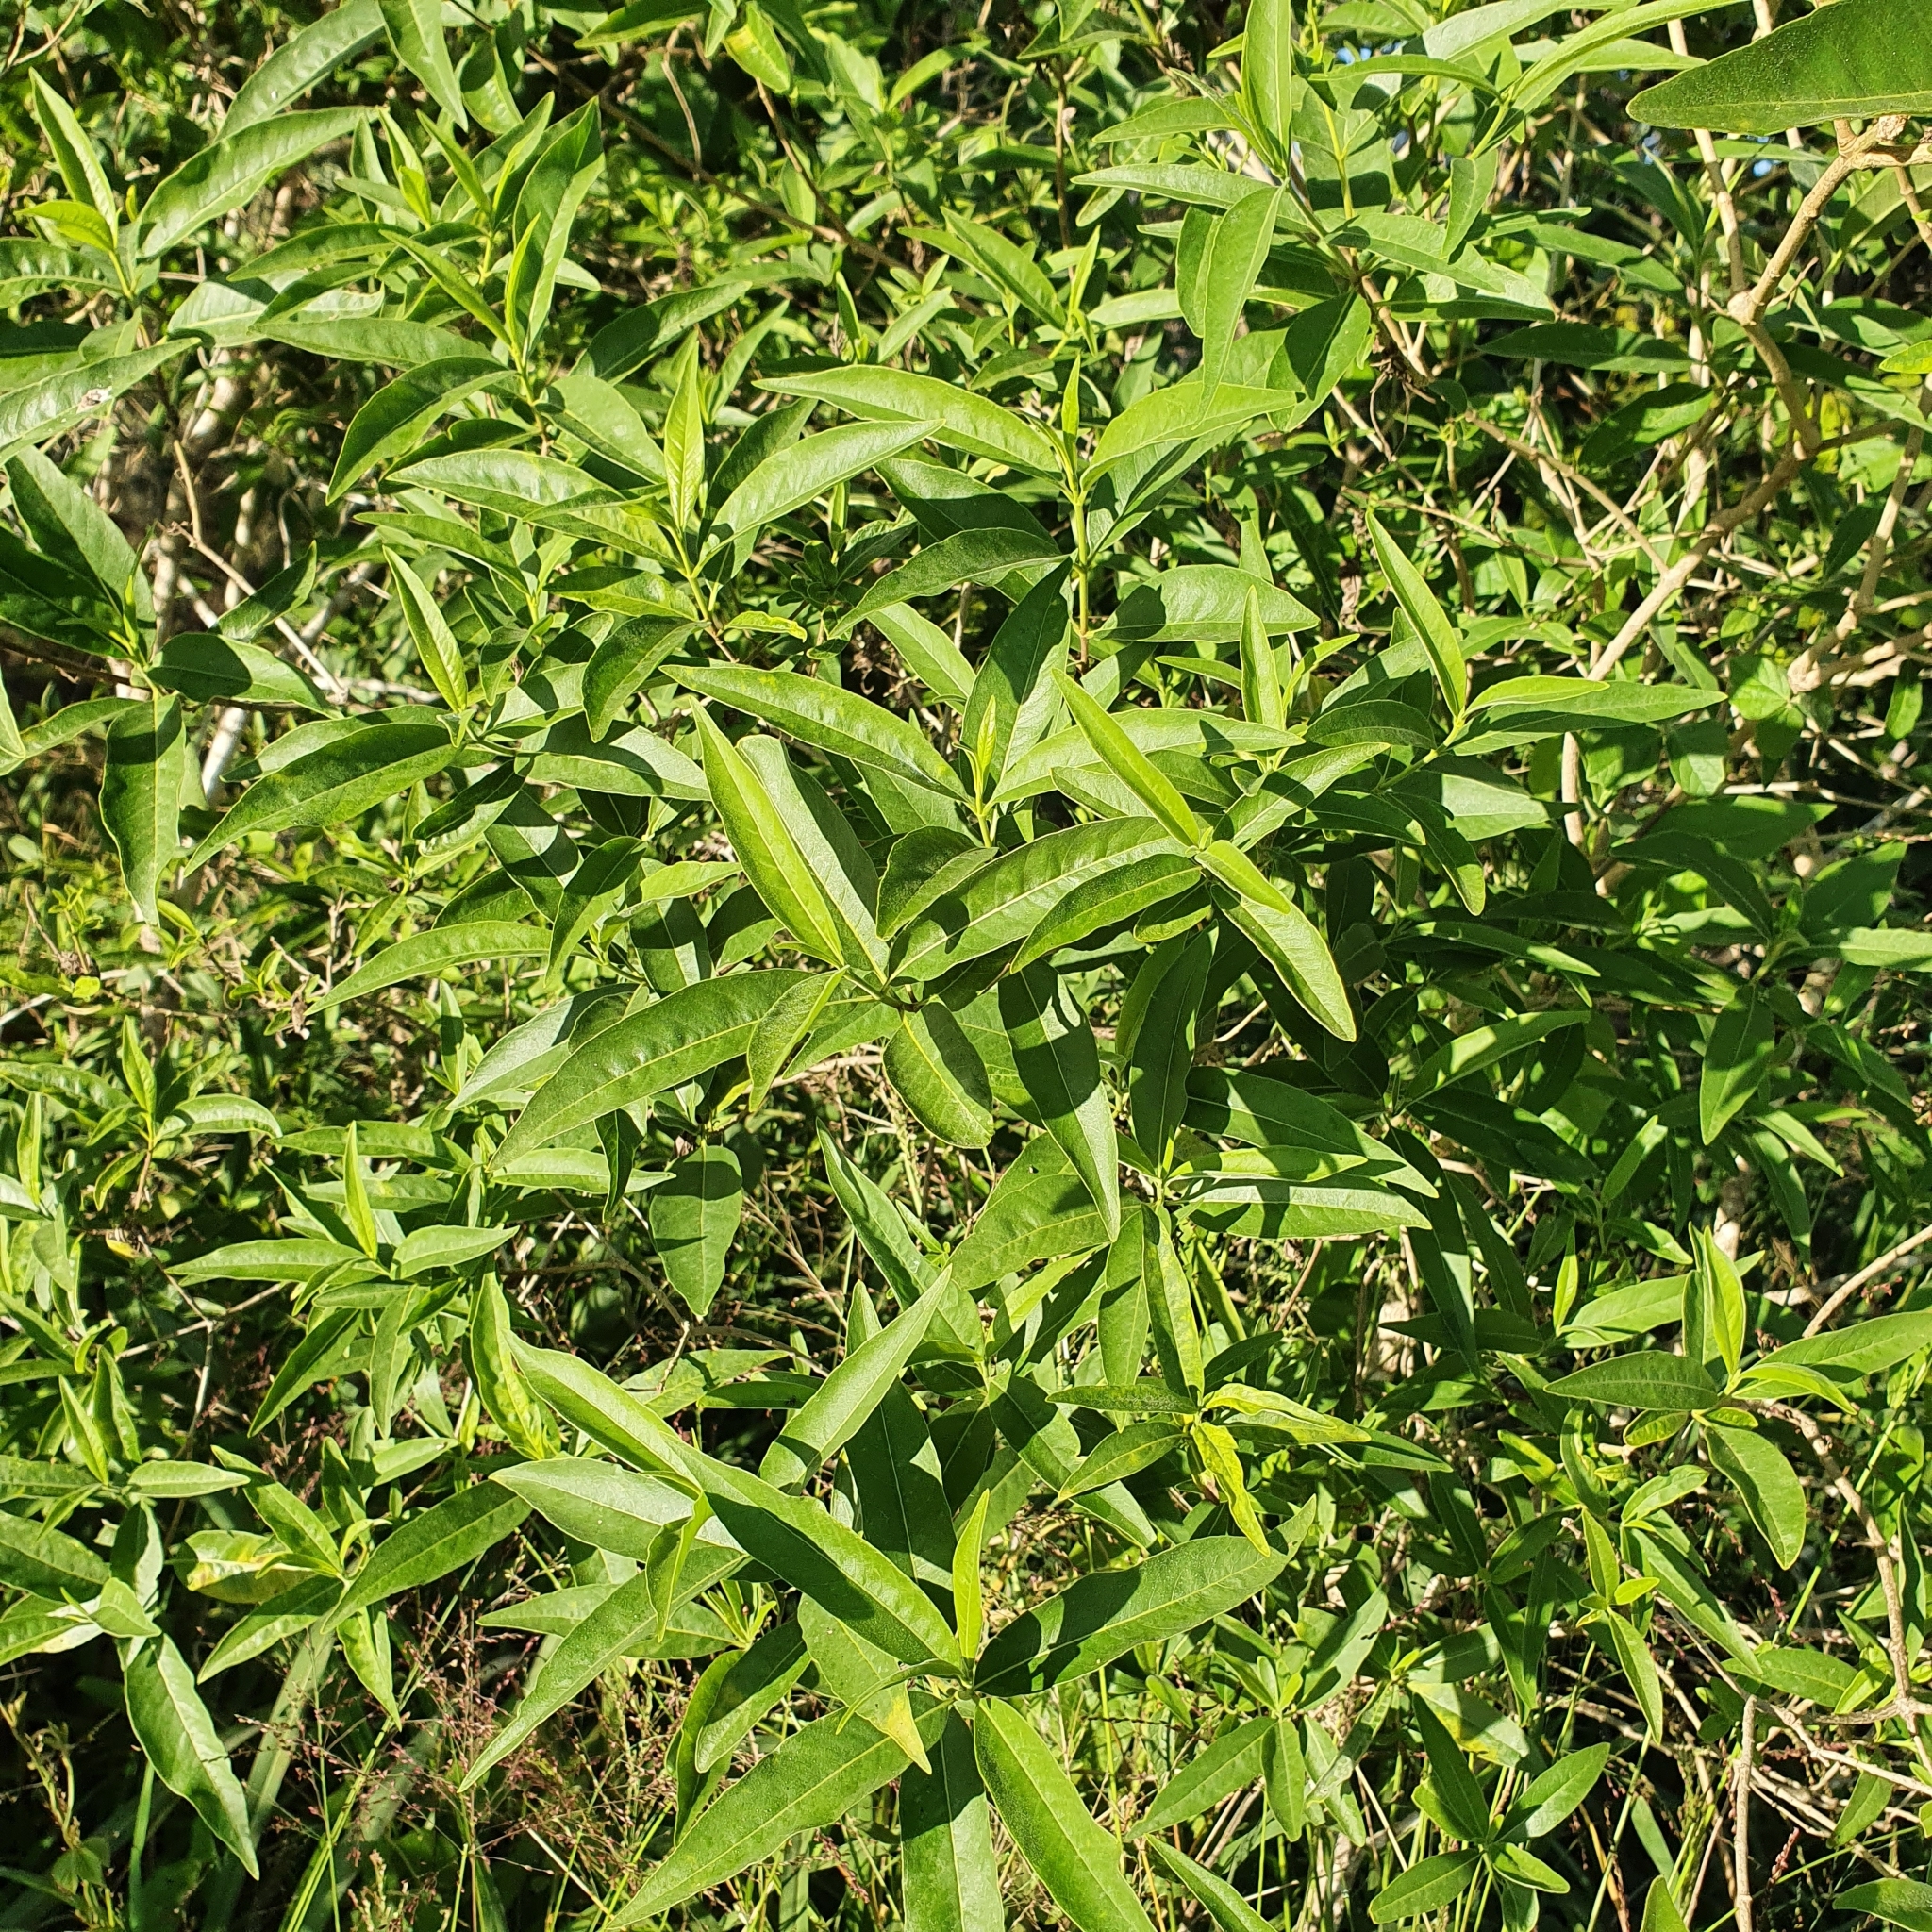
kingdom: Plantae
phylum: Tracheophyta
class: Magnoliopsida
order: Gentianales
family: Apocynaceae
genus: Alstonia
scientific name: Alstonia mollis
